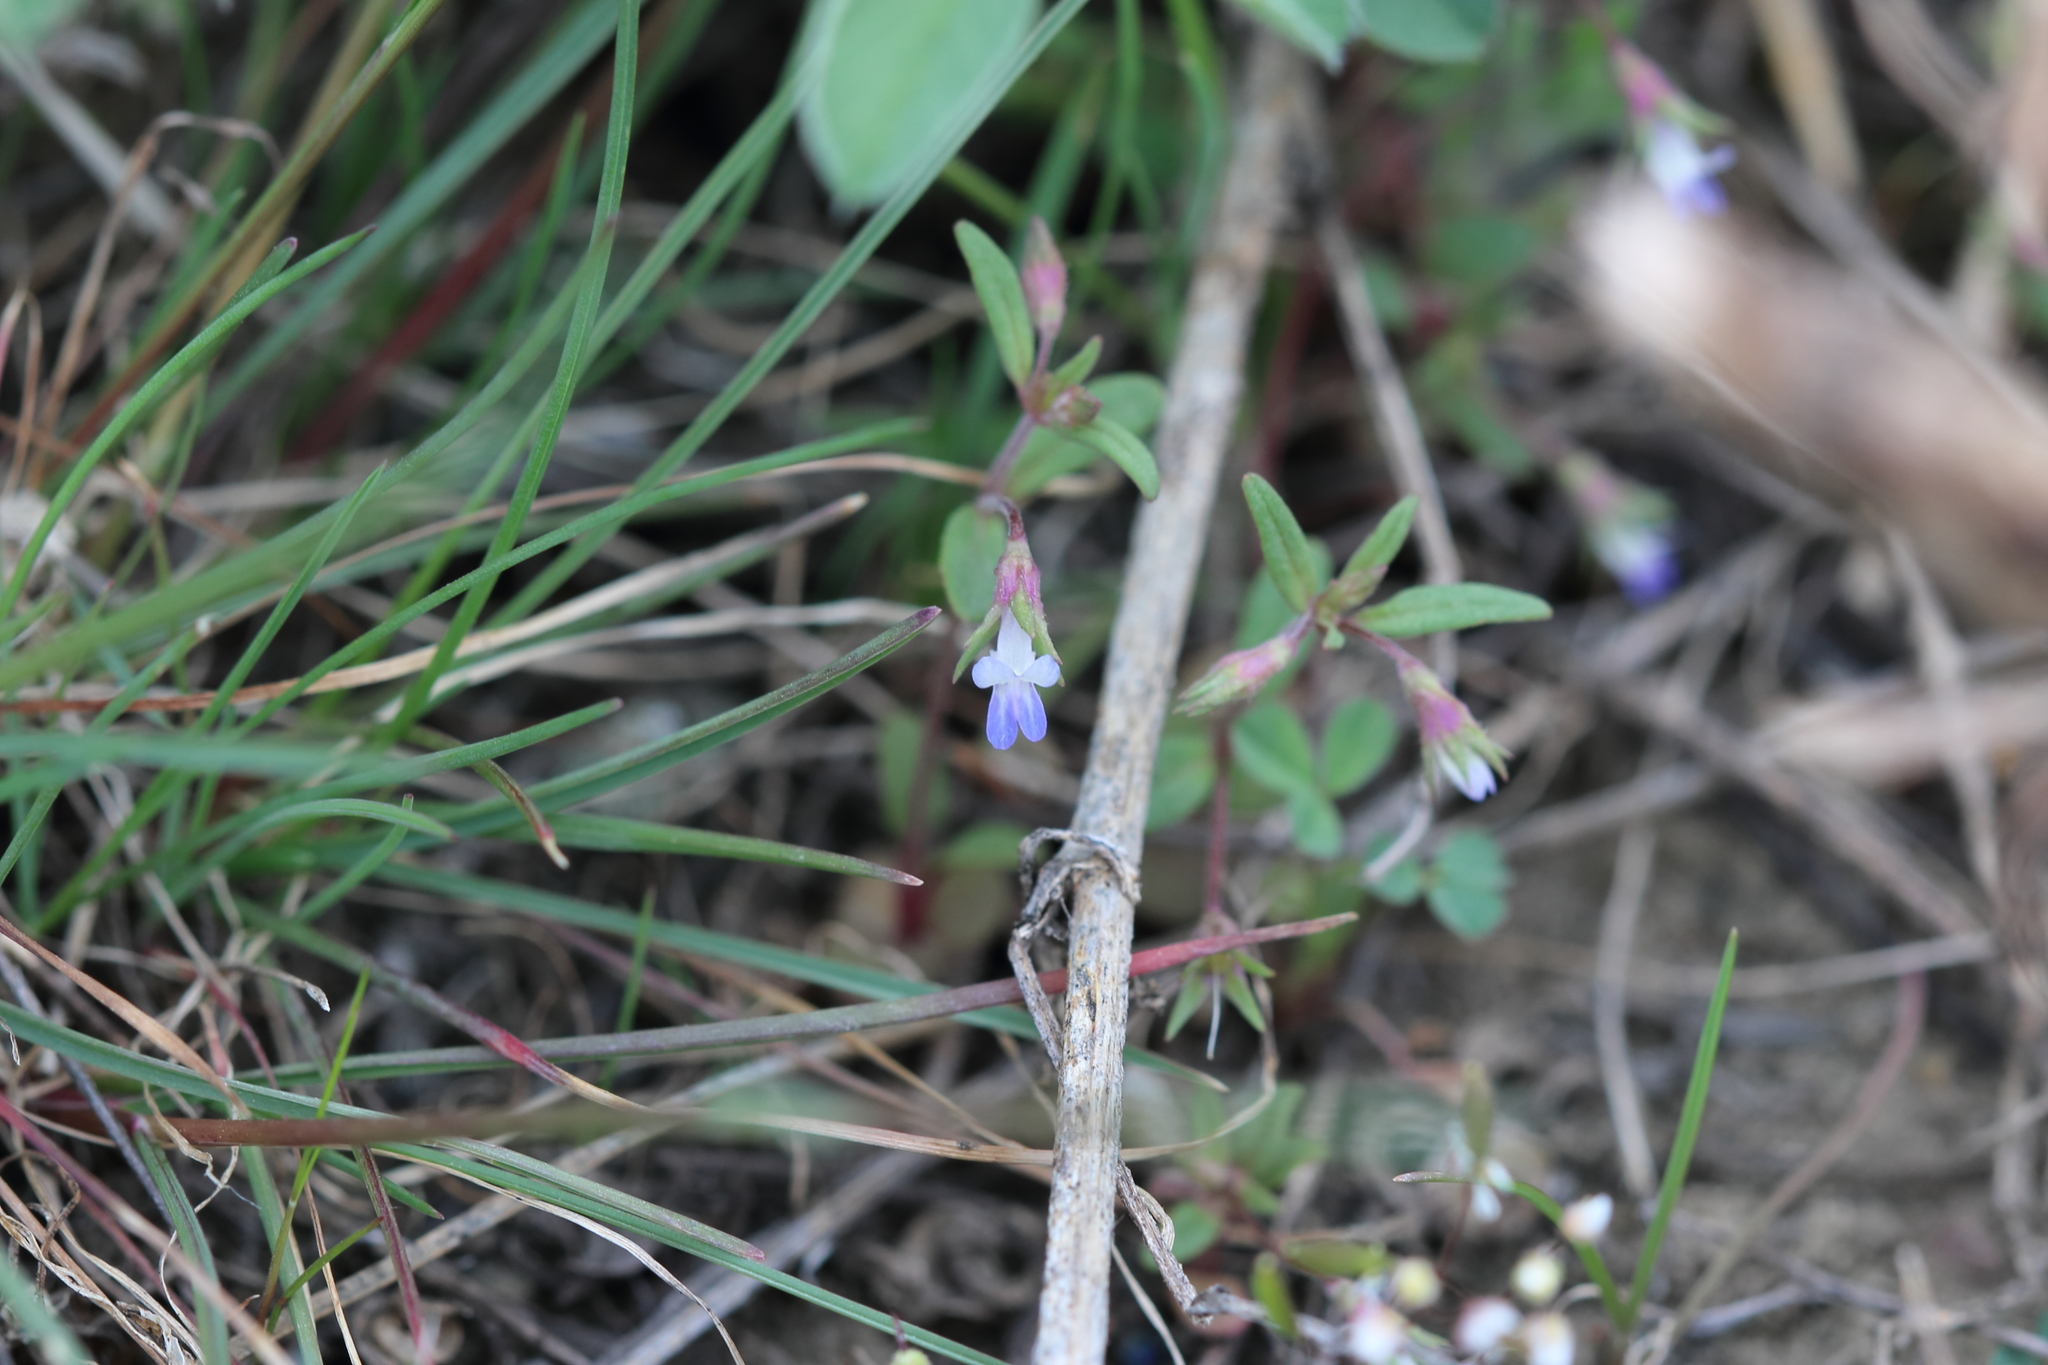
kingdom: Plantae
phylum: Tracheophyta
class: Magnoliopsida
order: Lamiales
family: Plantaginaceae
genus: Collinsia
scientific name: Collinsia parviflora
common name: Blue-lips
